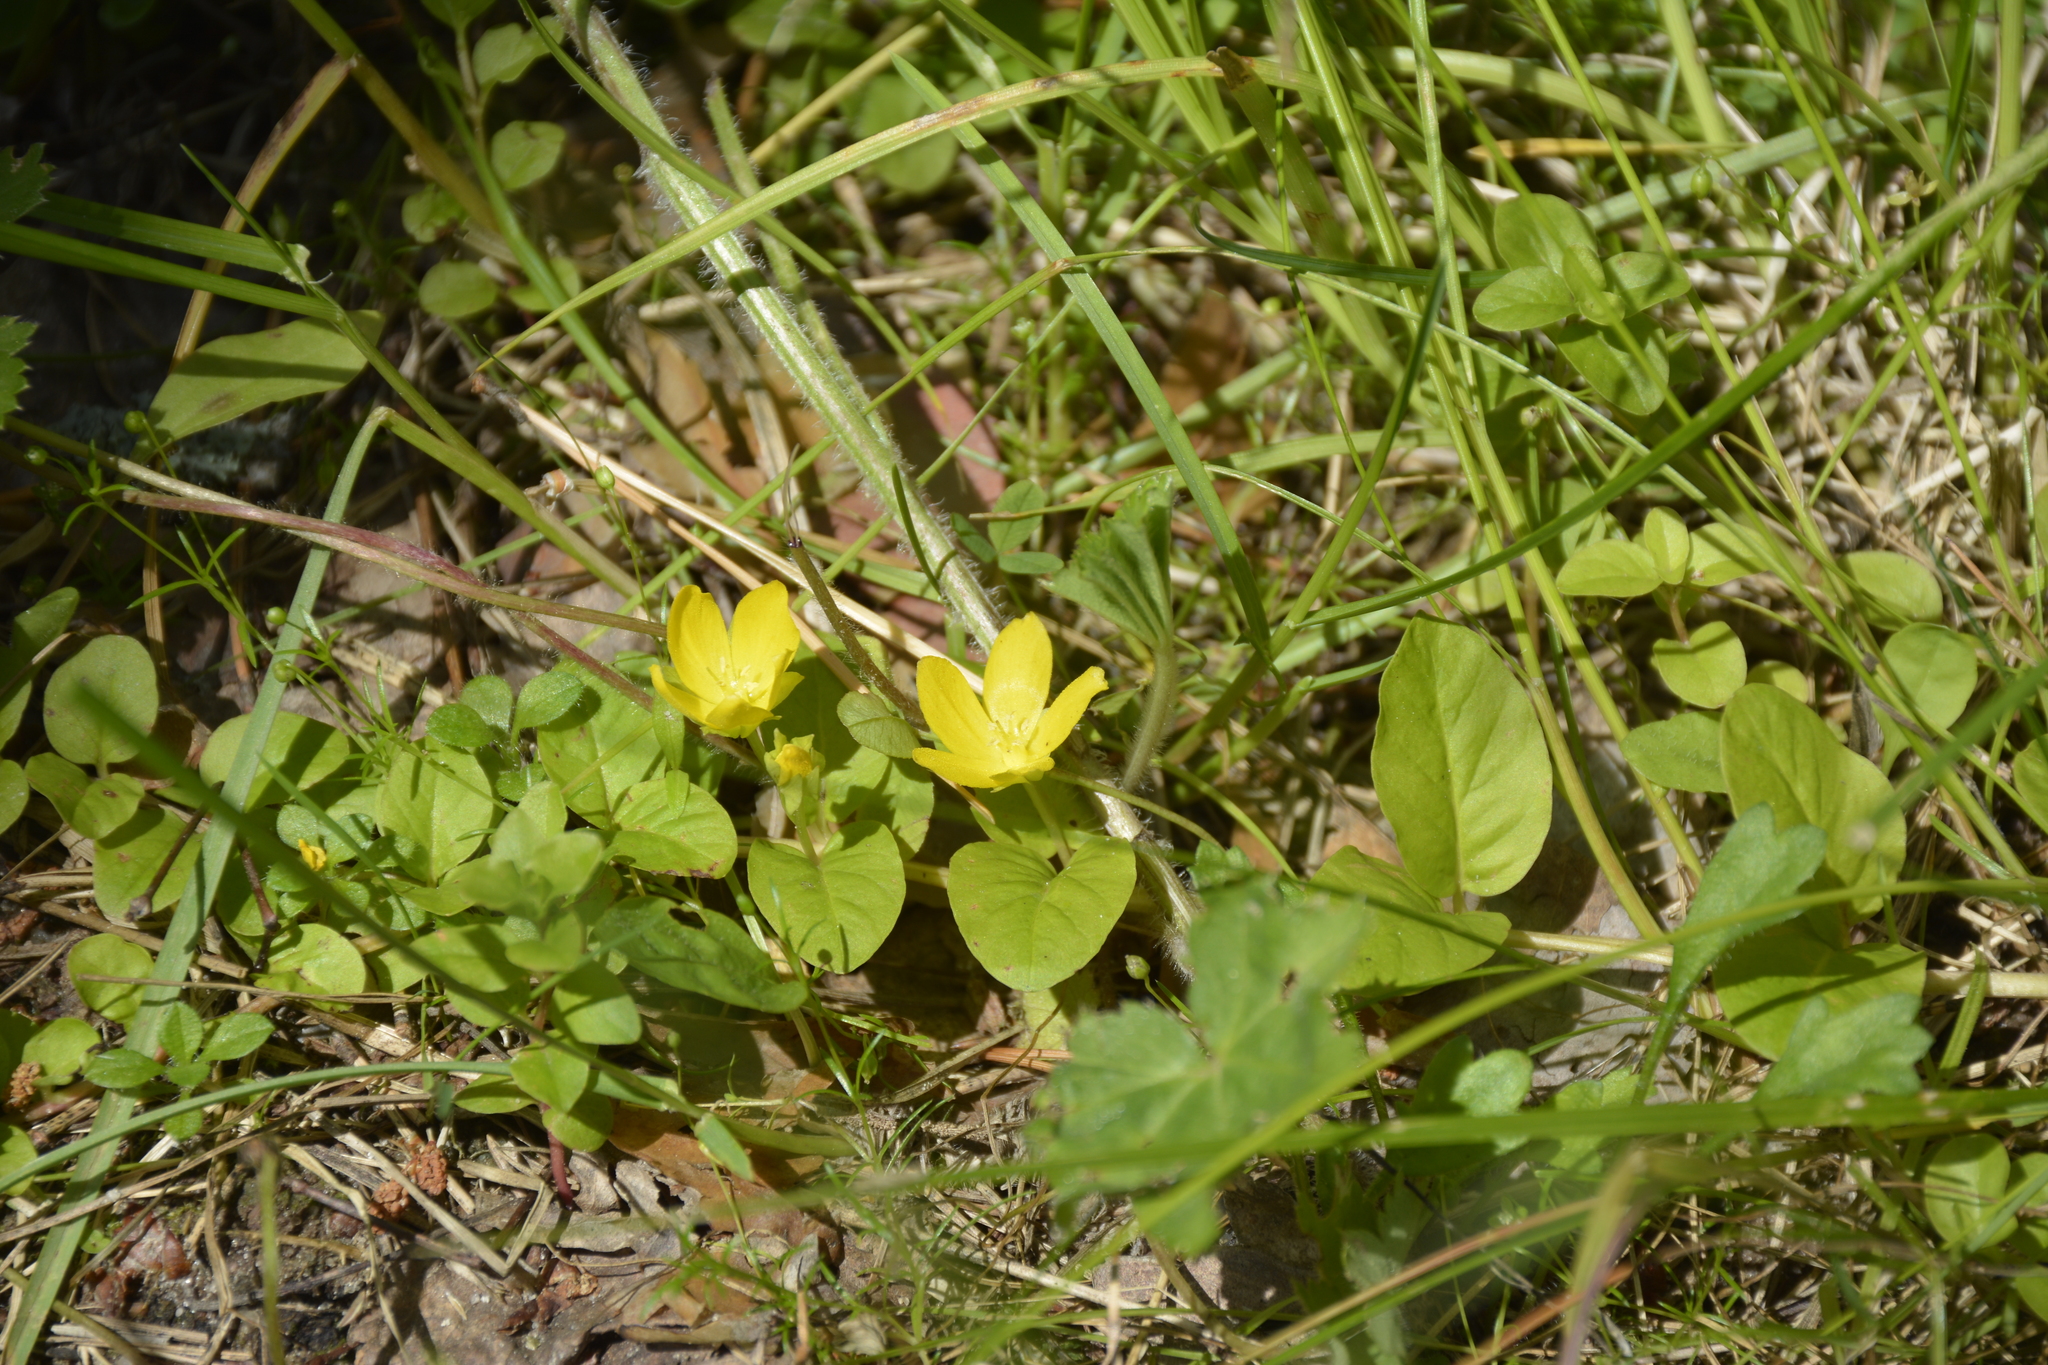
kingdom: Plantae
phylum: Tracheophyta
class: Magnoliopsida
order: Ericales
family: Primulaceae
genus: Lysimachia
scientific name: Lysimachia nummularia
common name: Moneywort
